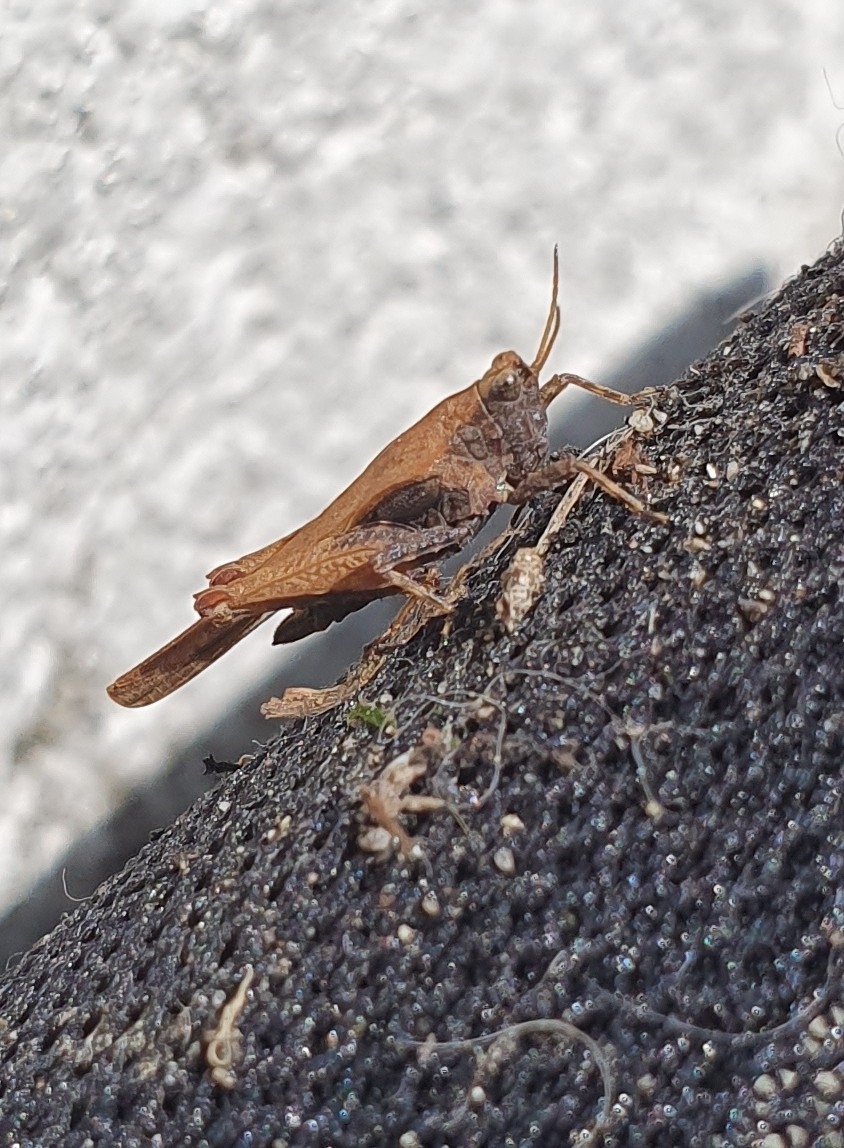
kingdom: Animalia
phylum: Arthropoda
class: Insecta
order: Orthoptera
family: Tetrigidae
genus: Tetrix
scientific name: Tetrix subulata
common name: Slender ground-hopper
